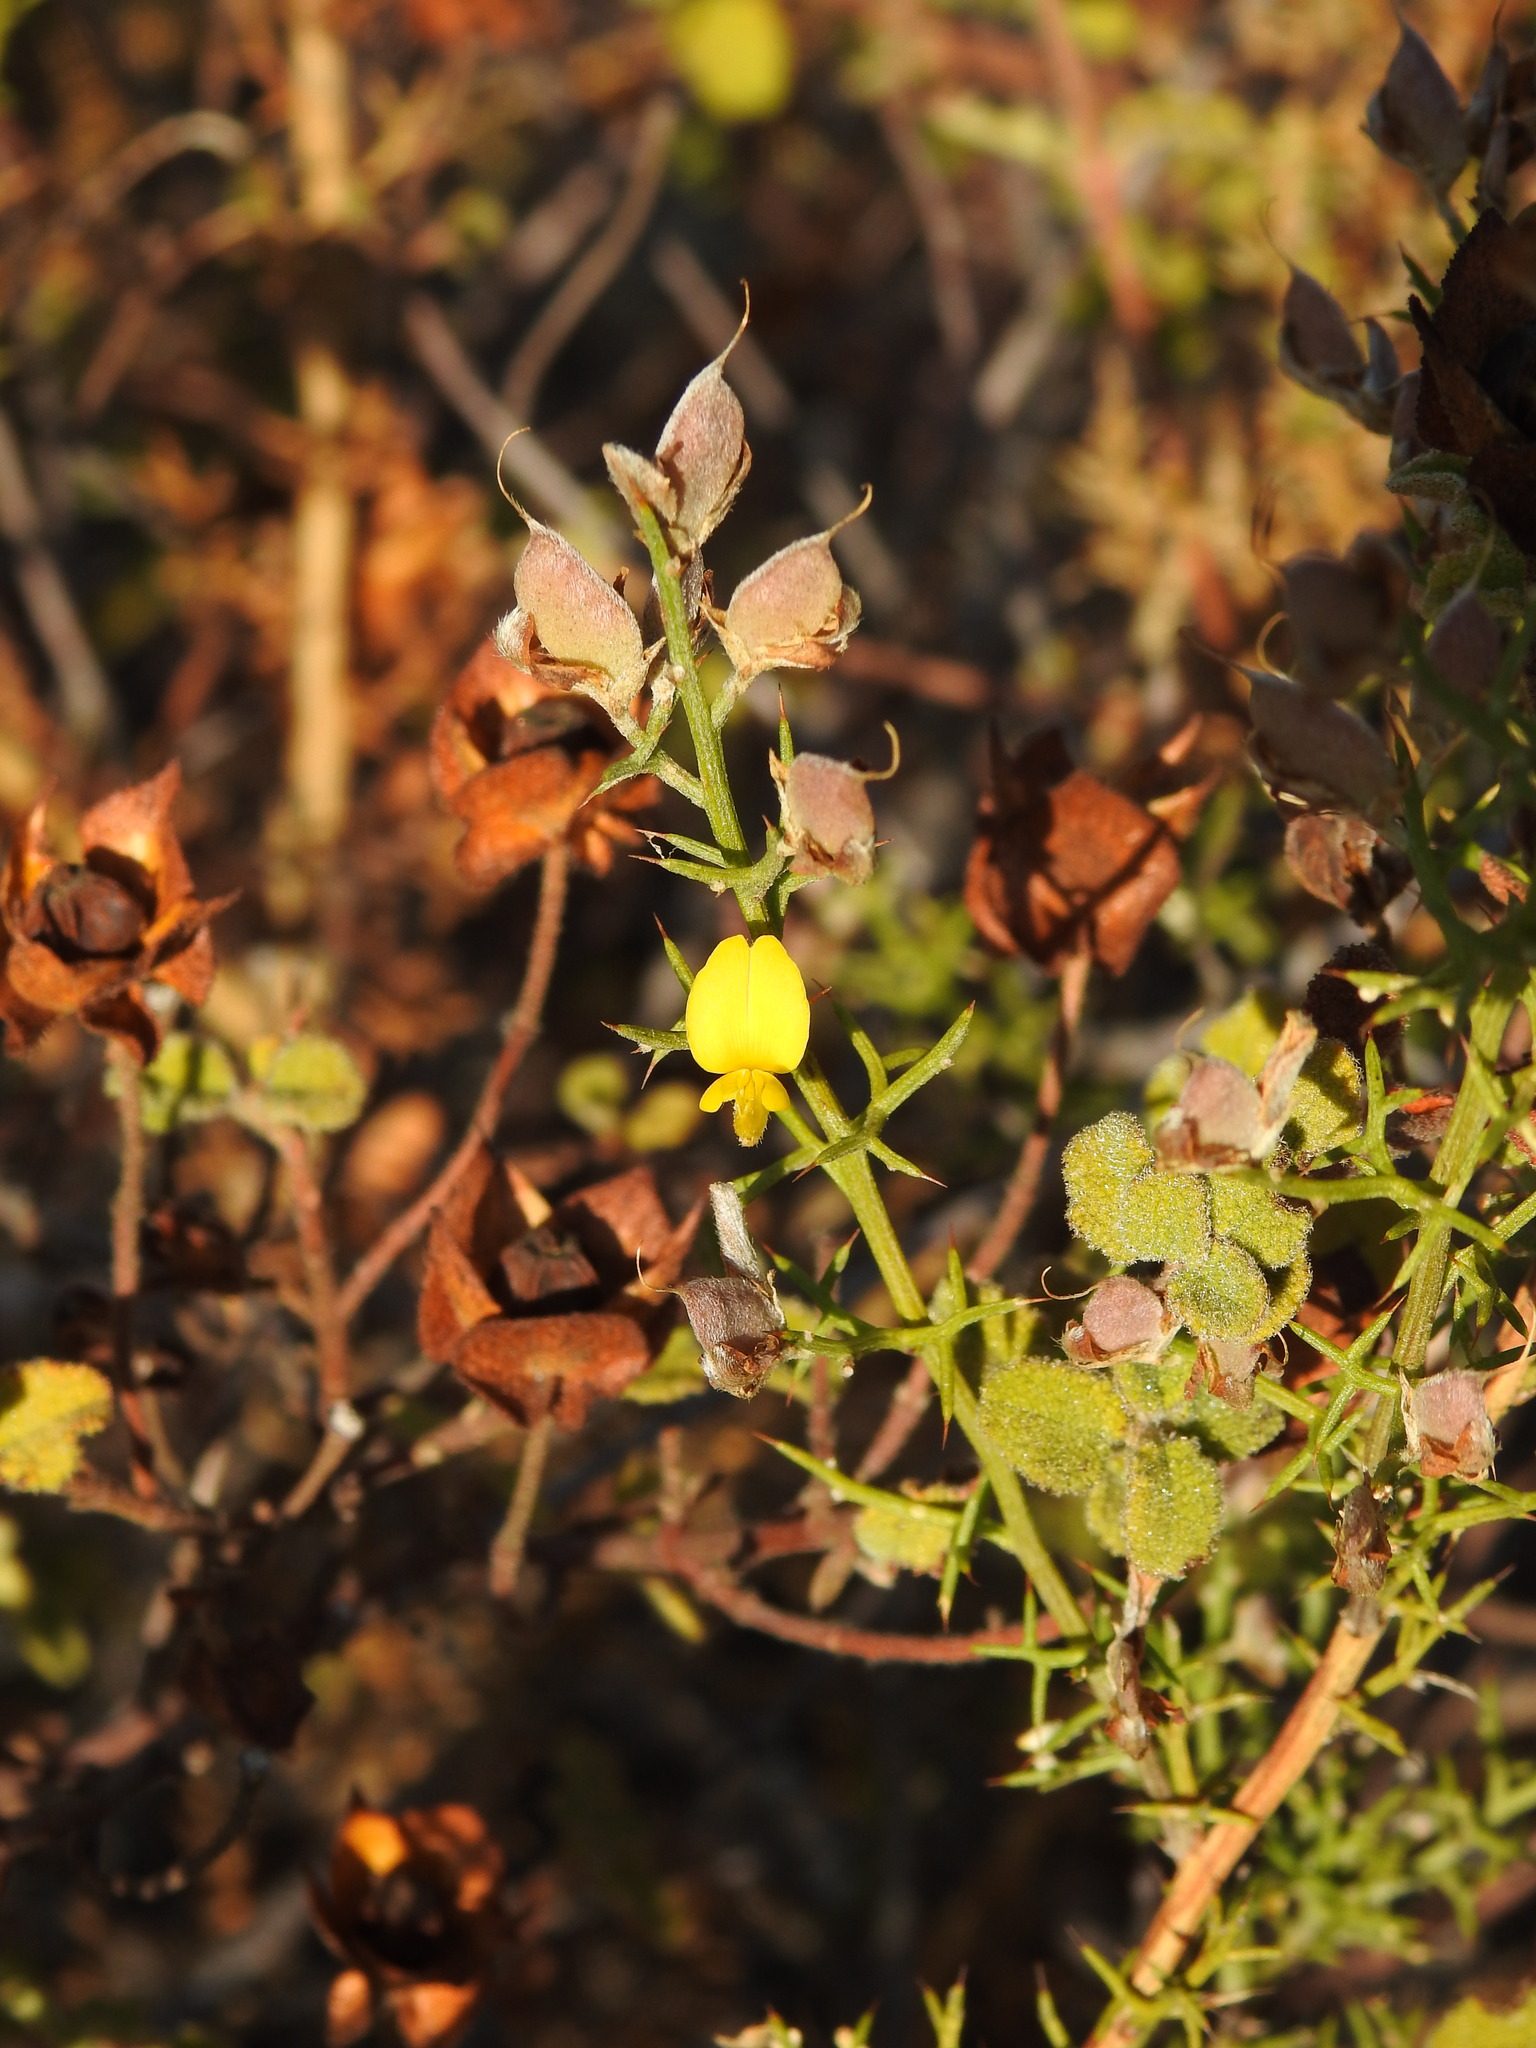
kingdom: Plantae
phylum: Tracheophyta
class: Magnoliopsida
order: Fabales
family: Fabaceae
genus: Stauracanthus
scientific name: Stauracanthus boivinii
